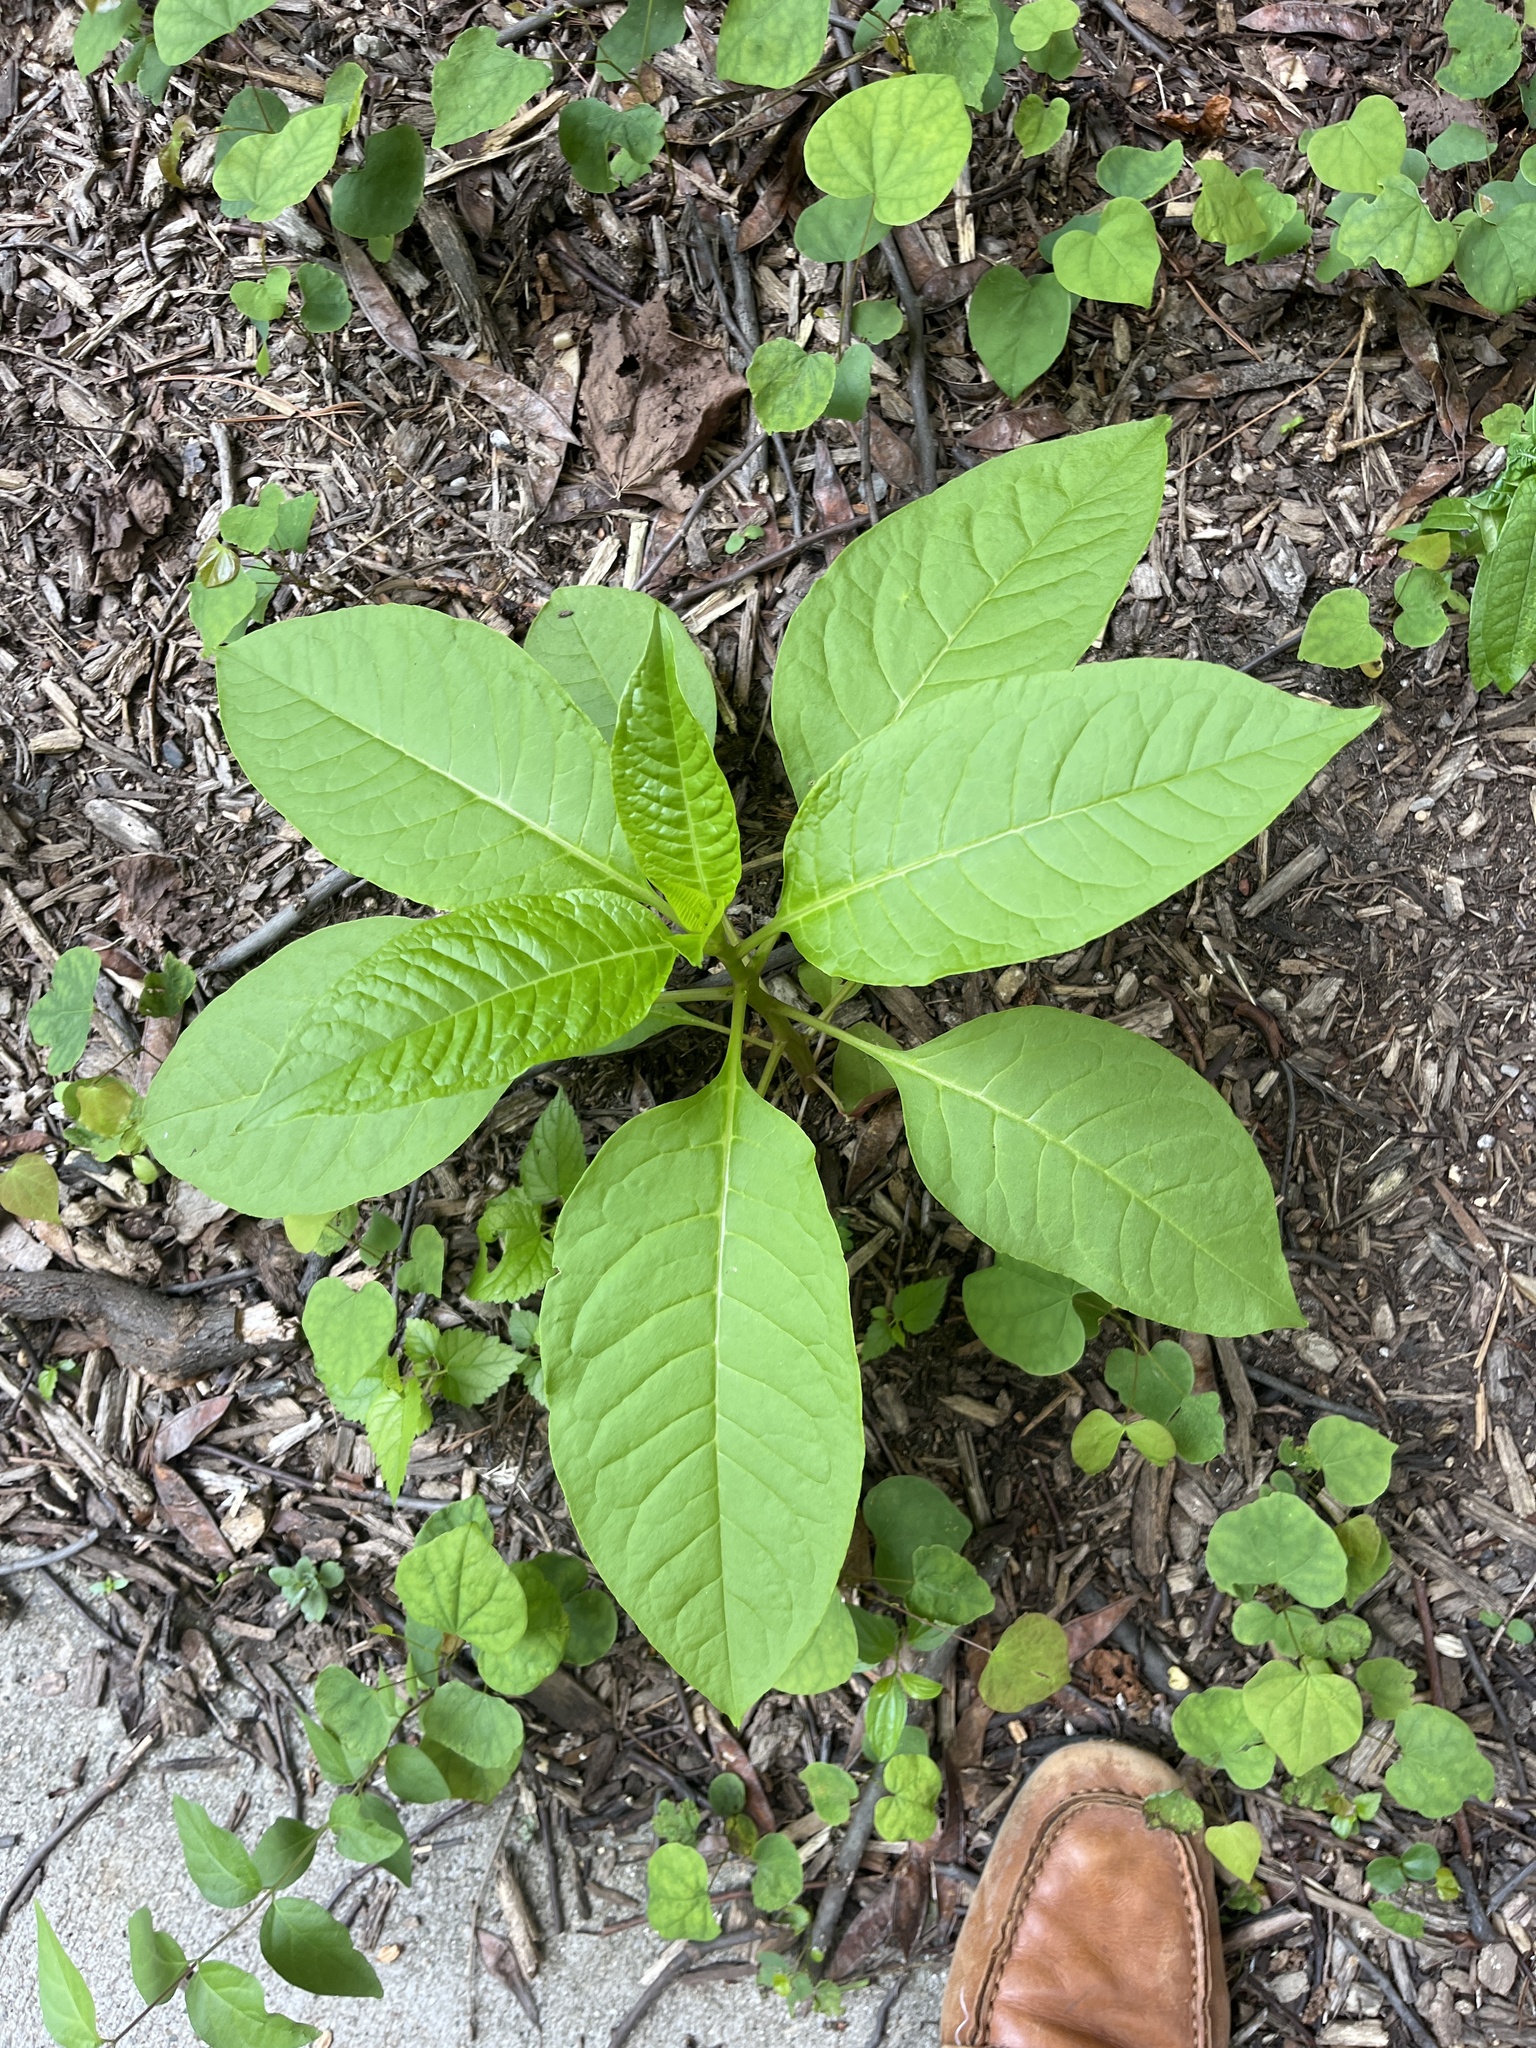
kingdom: Plantae
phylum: Tracheophyta
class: Magnoliopsida
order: Caryophyllales
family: Phytolaccaceae
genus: Phytolacca
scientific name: Phytolacca americana
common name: American pokeweed
